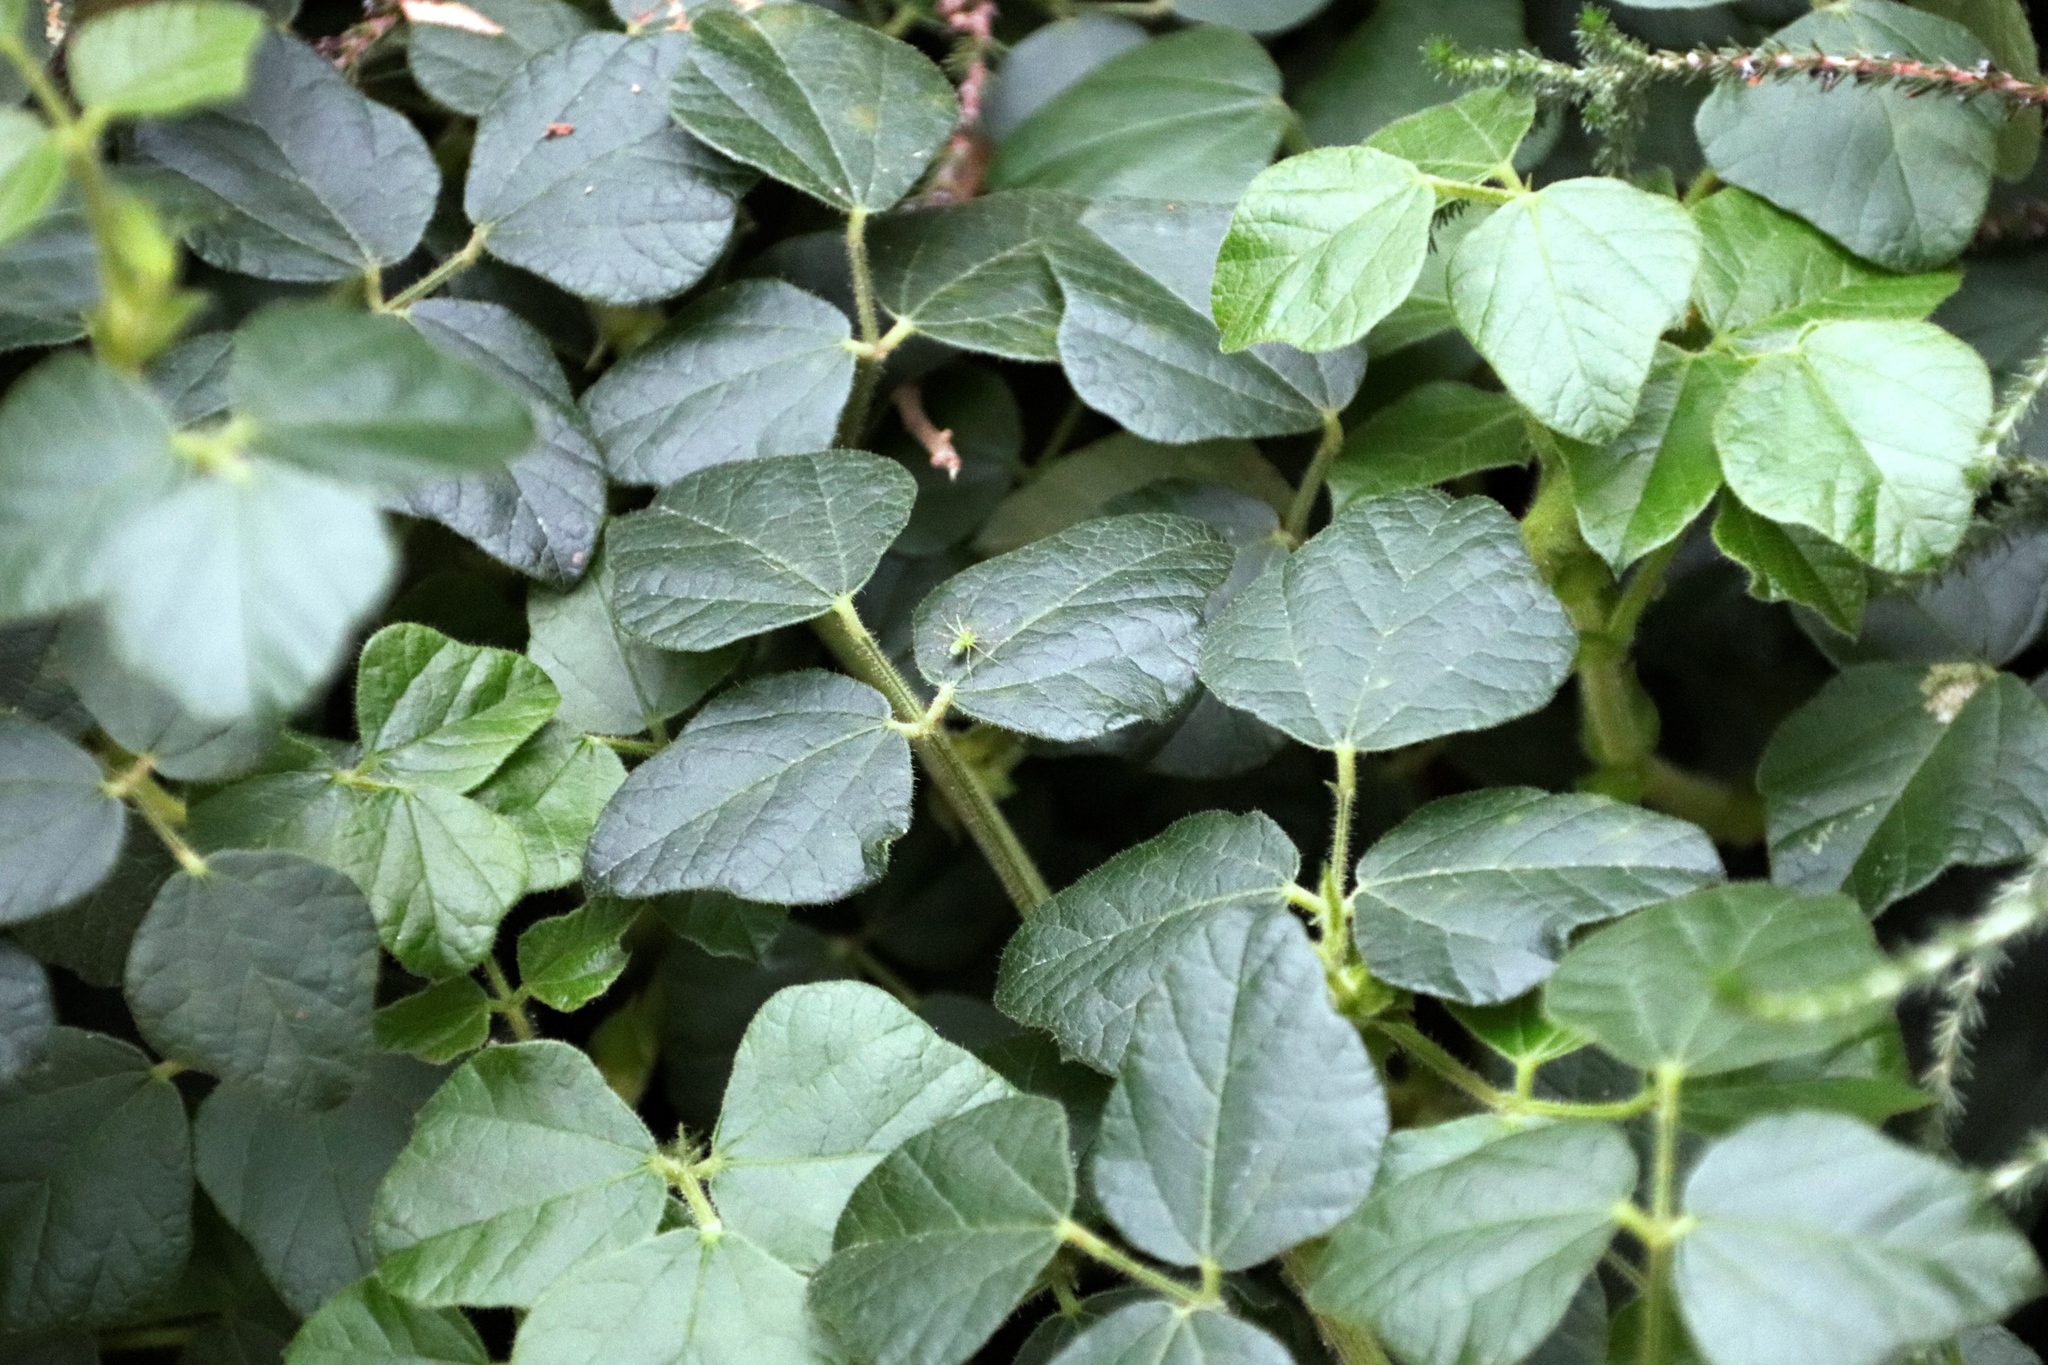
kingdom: Plantae
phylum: Tracheophyta
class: Magnoliopsida
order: Fabales
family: Fabaceae
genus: Bolusafra
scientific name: Bolusafra bituminosa
